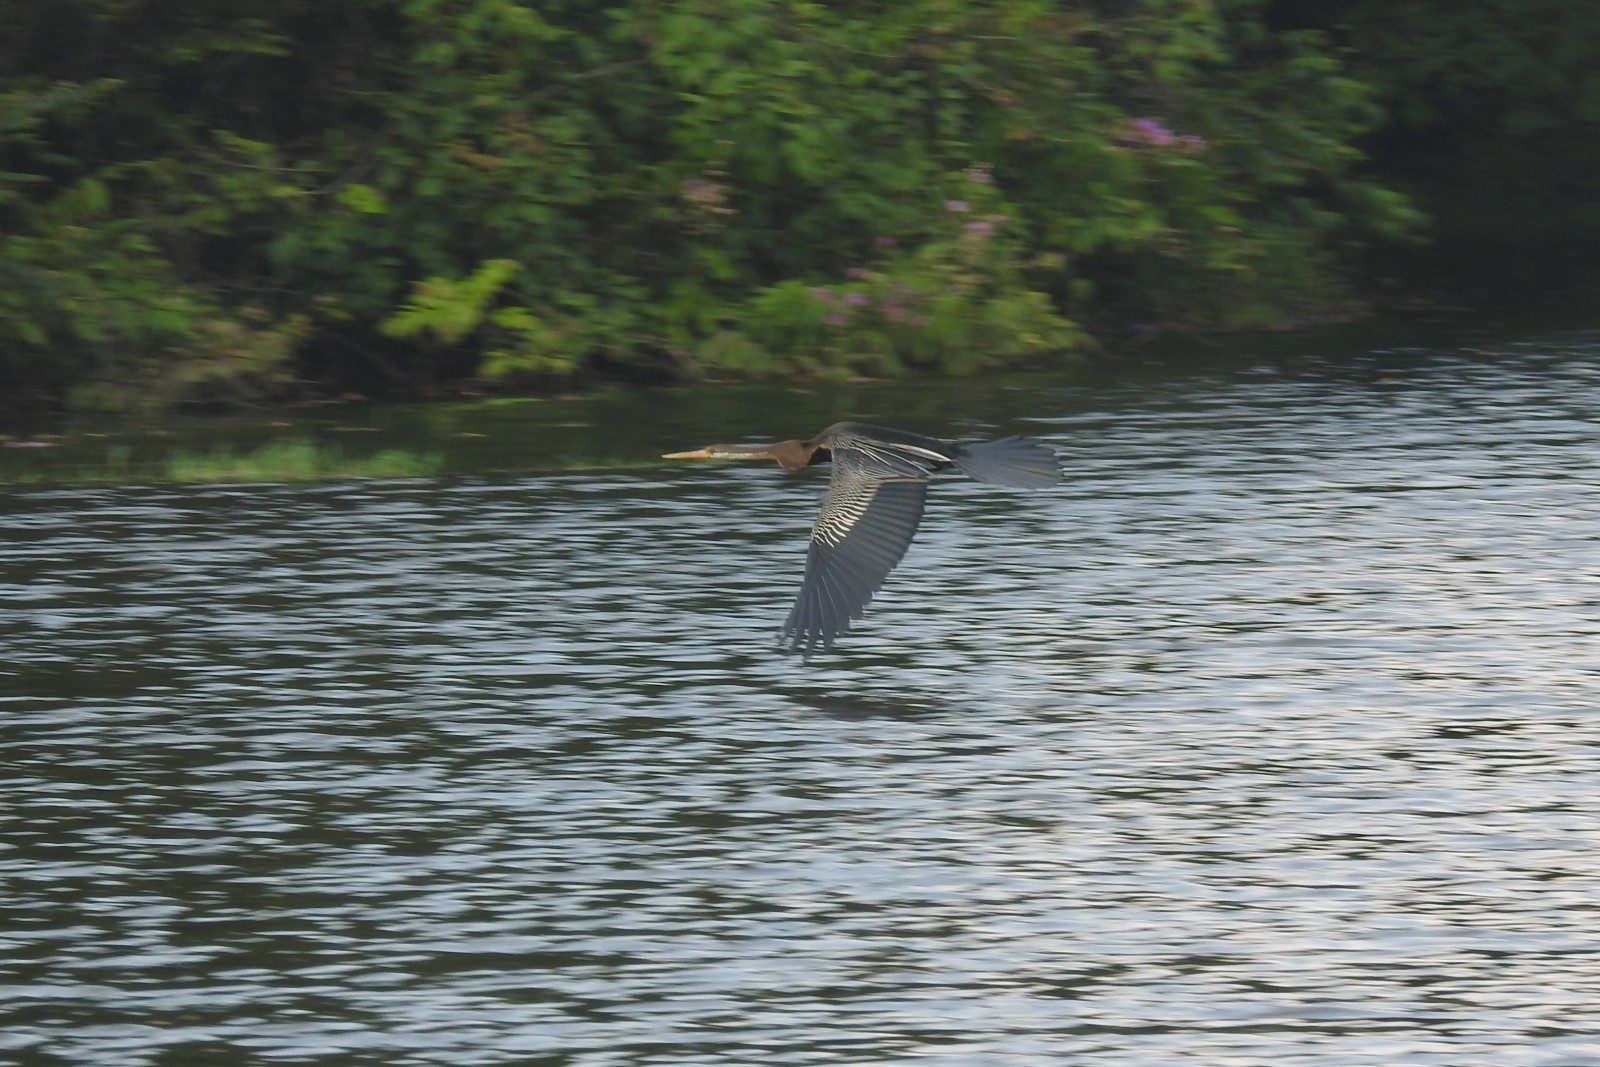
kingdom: Animalia
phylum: Chordata
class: Aves
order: Suliformes
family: Anhingidae
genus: Anhinga
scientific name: Anhinga melanogaster
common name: Oriental darter
